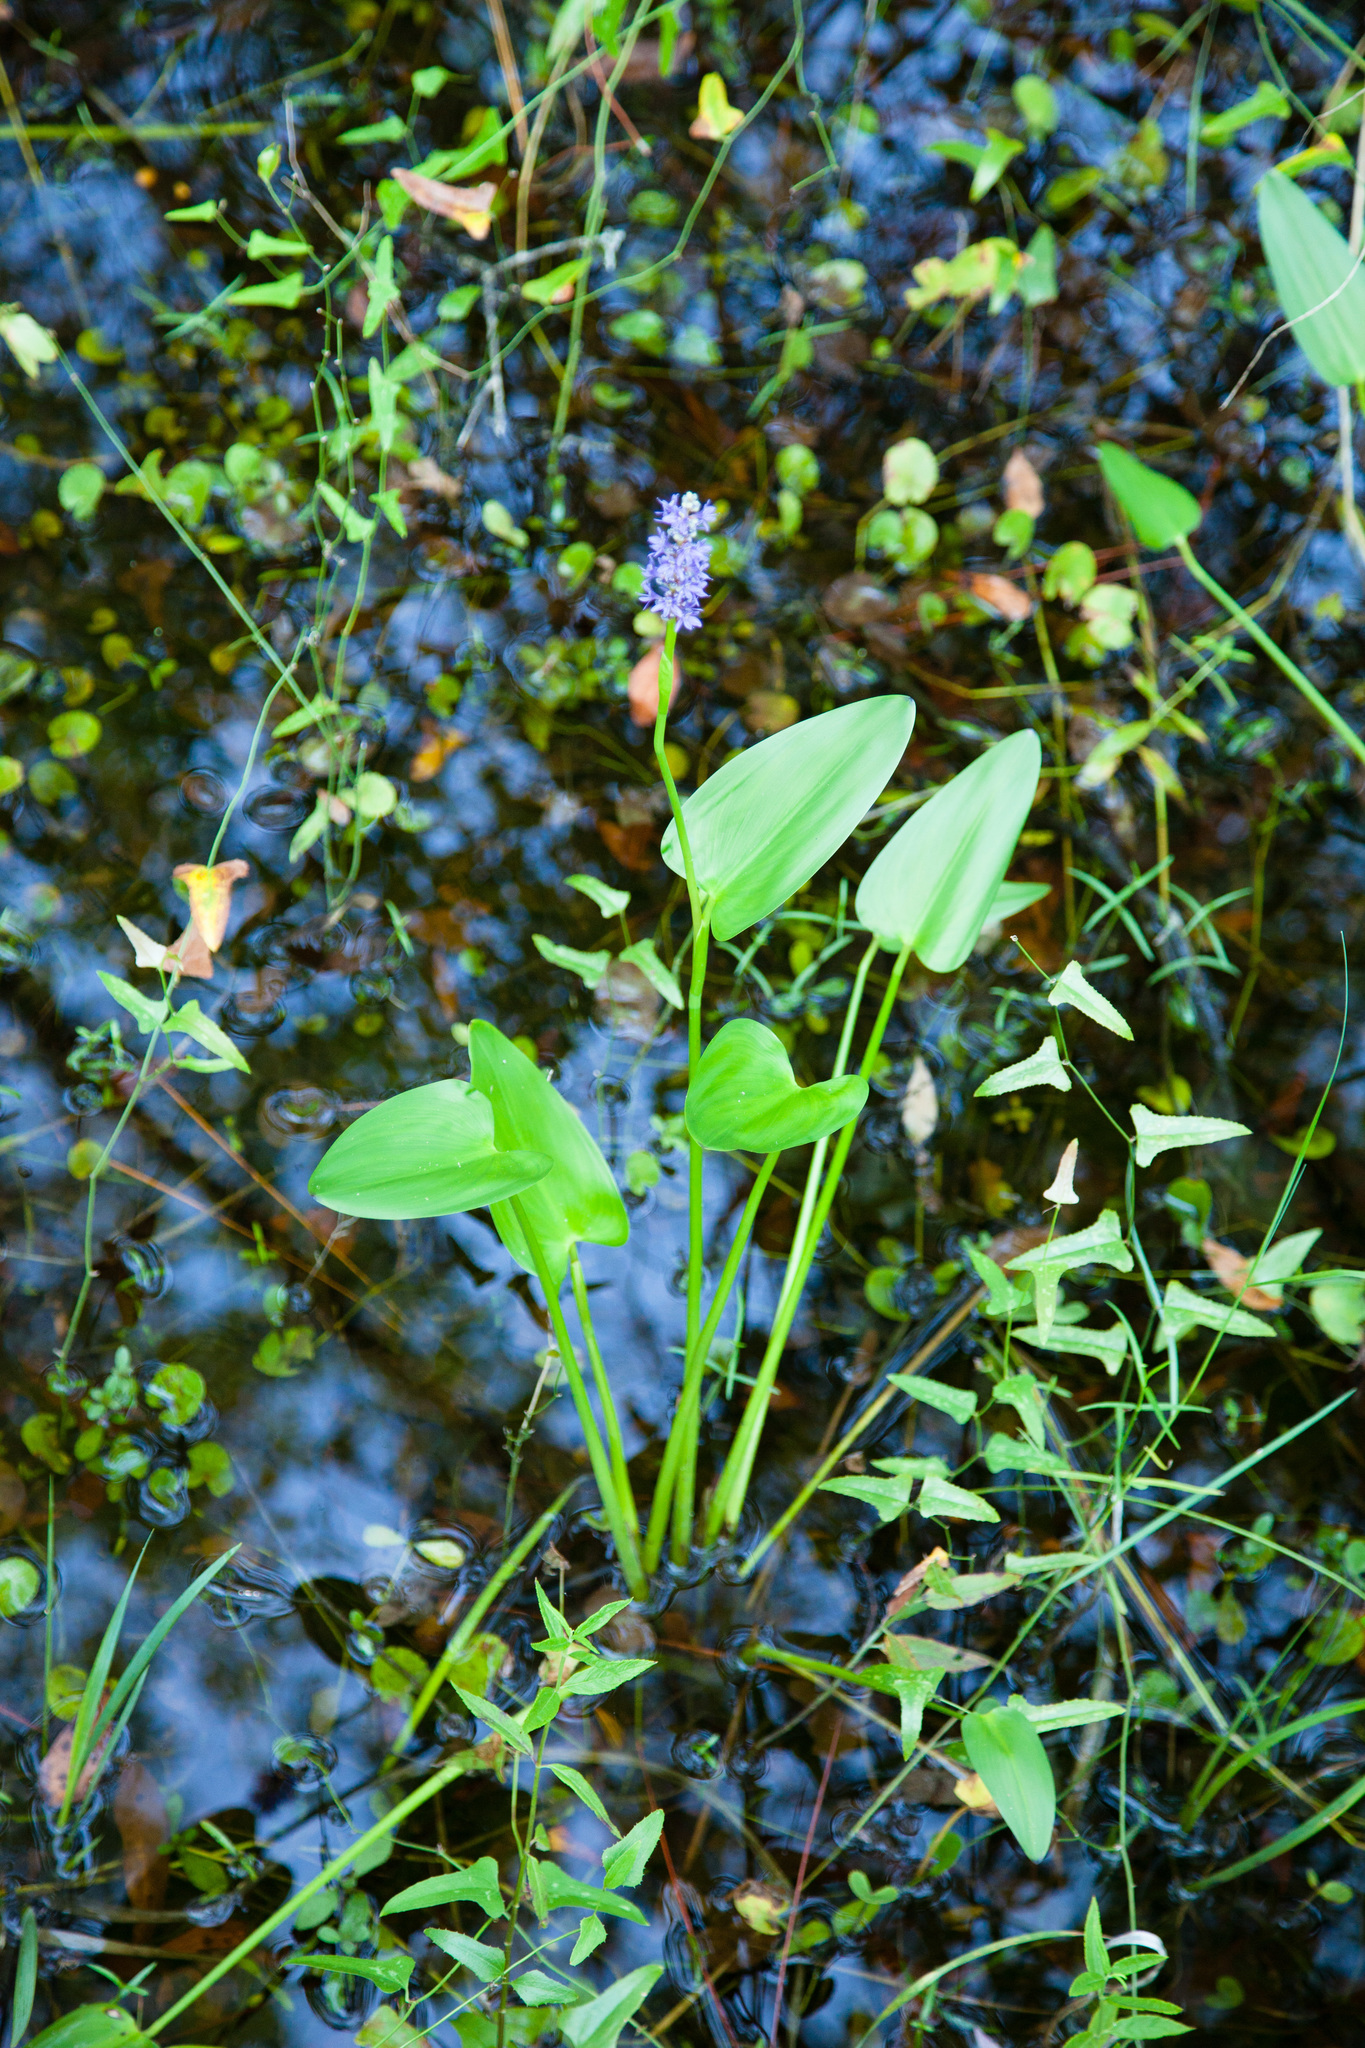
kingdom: Plantae
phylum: Tracheophyta
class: Liliopsida
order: Commelinales
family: Pontederiaceae
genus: Pontederia
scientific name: Pontederia cordata
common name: Pickerelweed
